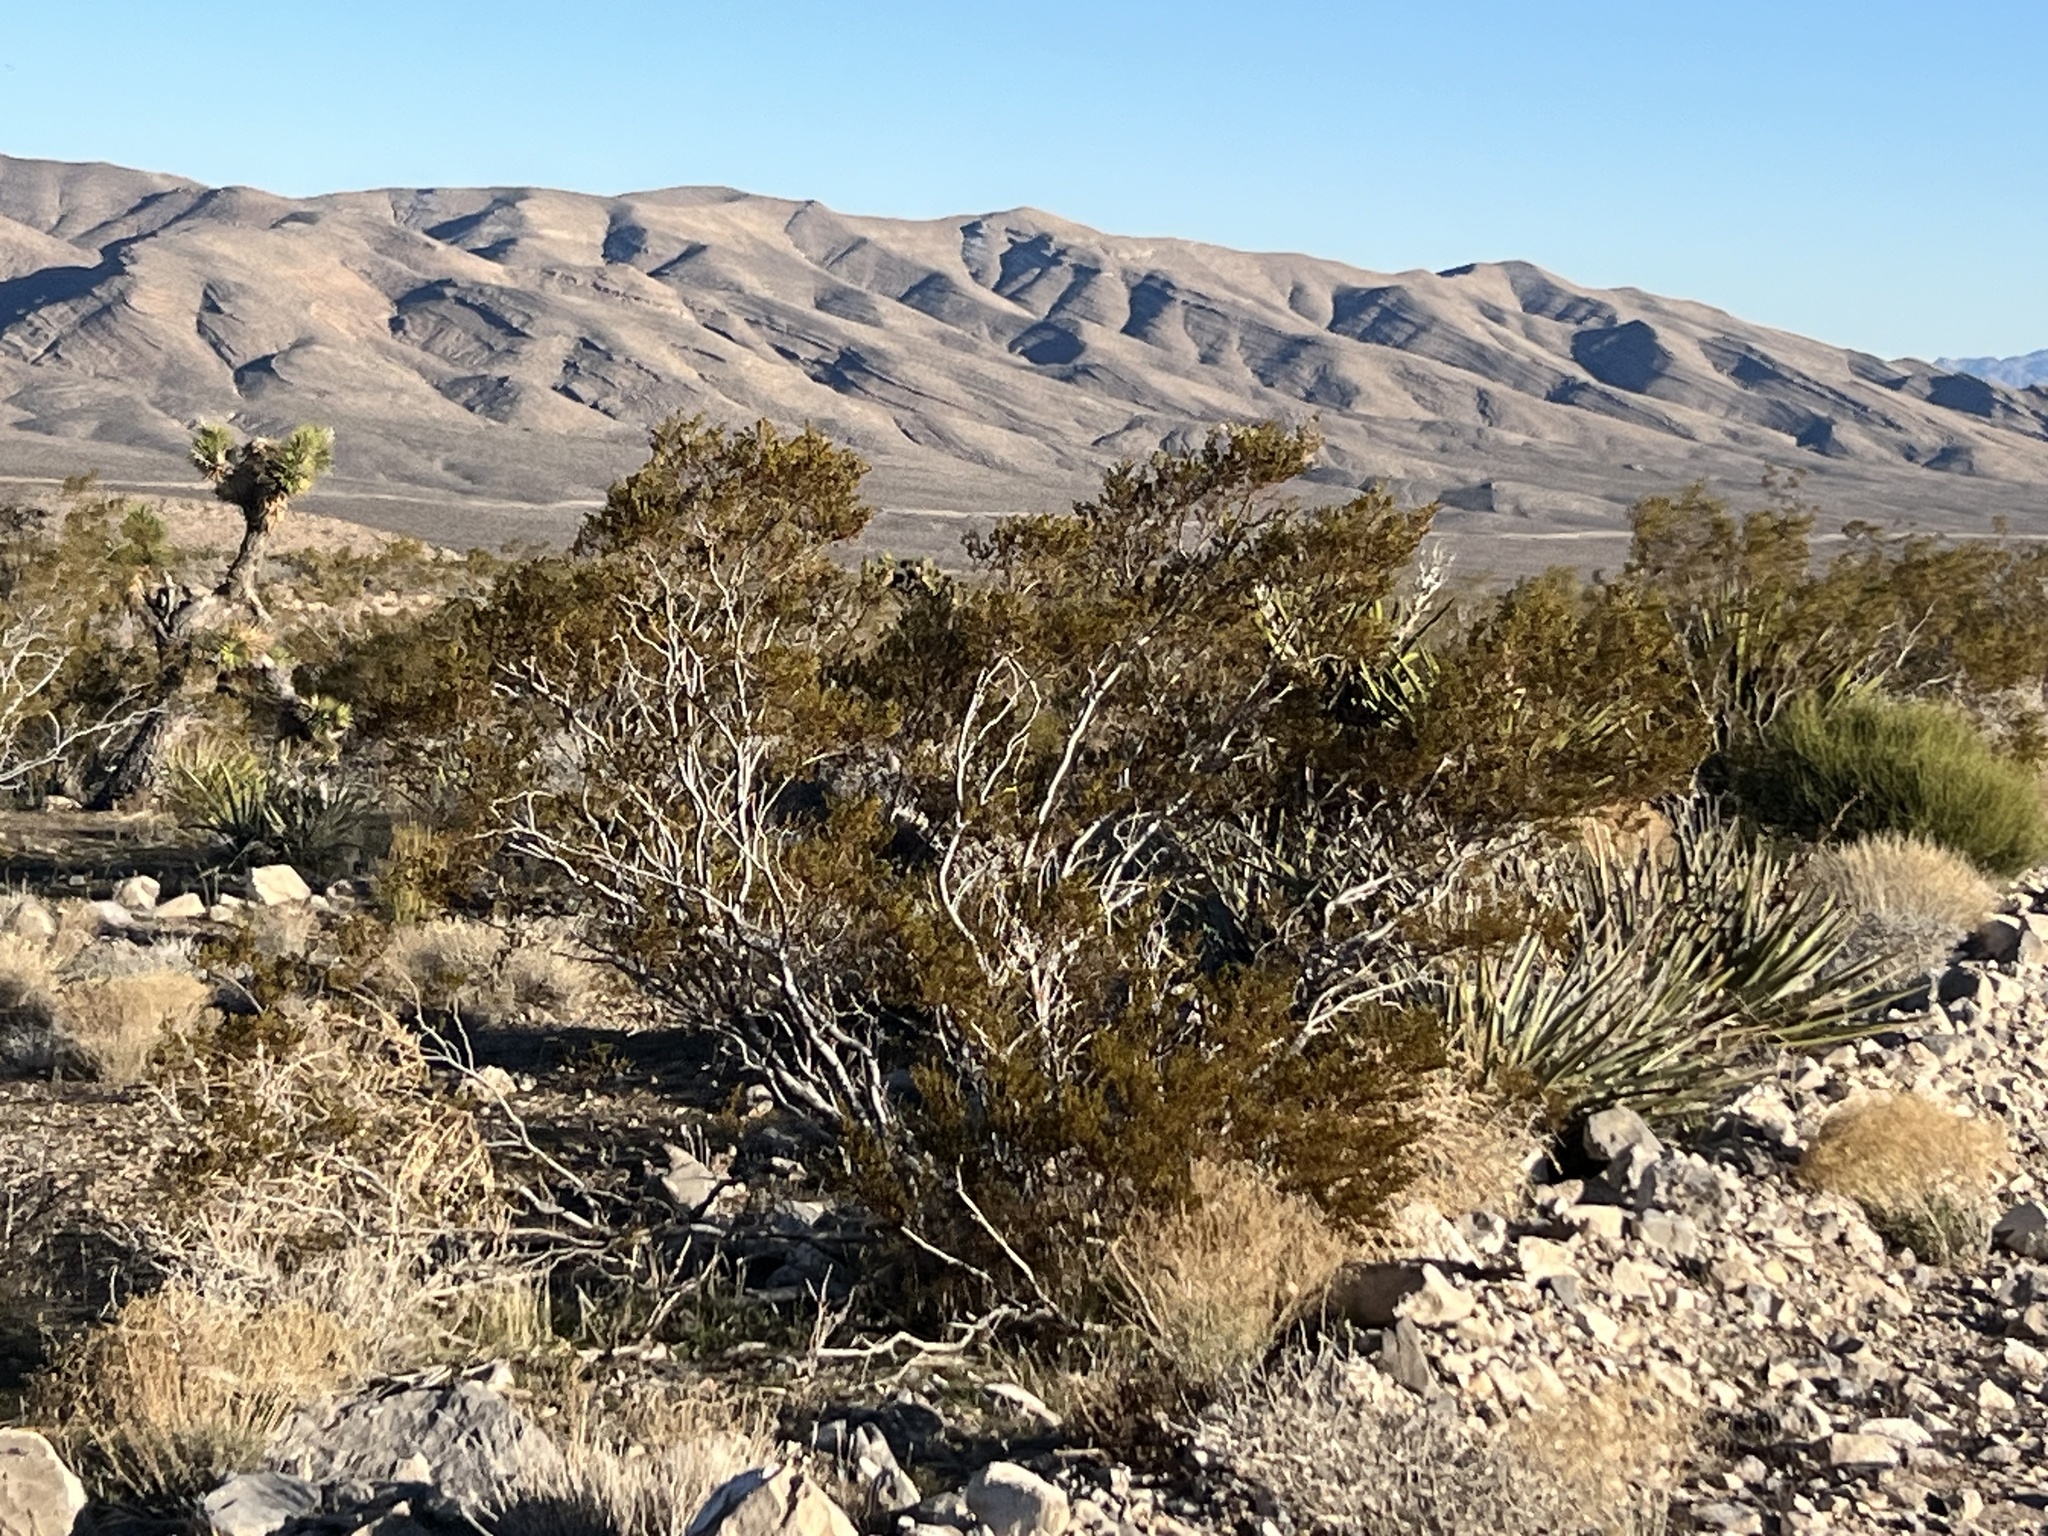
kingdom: Plantae
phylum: Tracheophyta
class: Magnoliopsida
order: Zygophyllales
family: Zygophyllaceae
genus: Larrea
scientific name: Larrea tridentata
